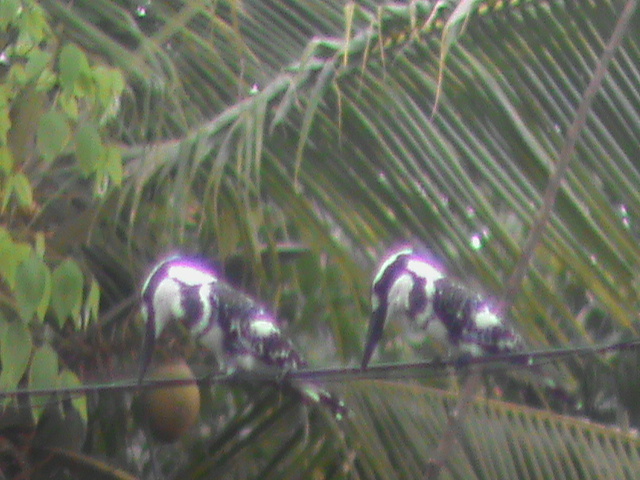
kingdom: Animalia
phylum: Chordata
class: Aves
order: Coraciiformes
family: Alcedinidae
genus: Ceryle
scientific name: Ceryle rudis
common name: Pied kingfisher
